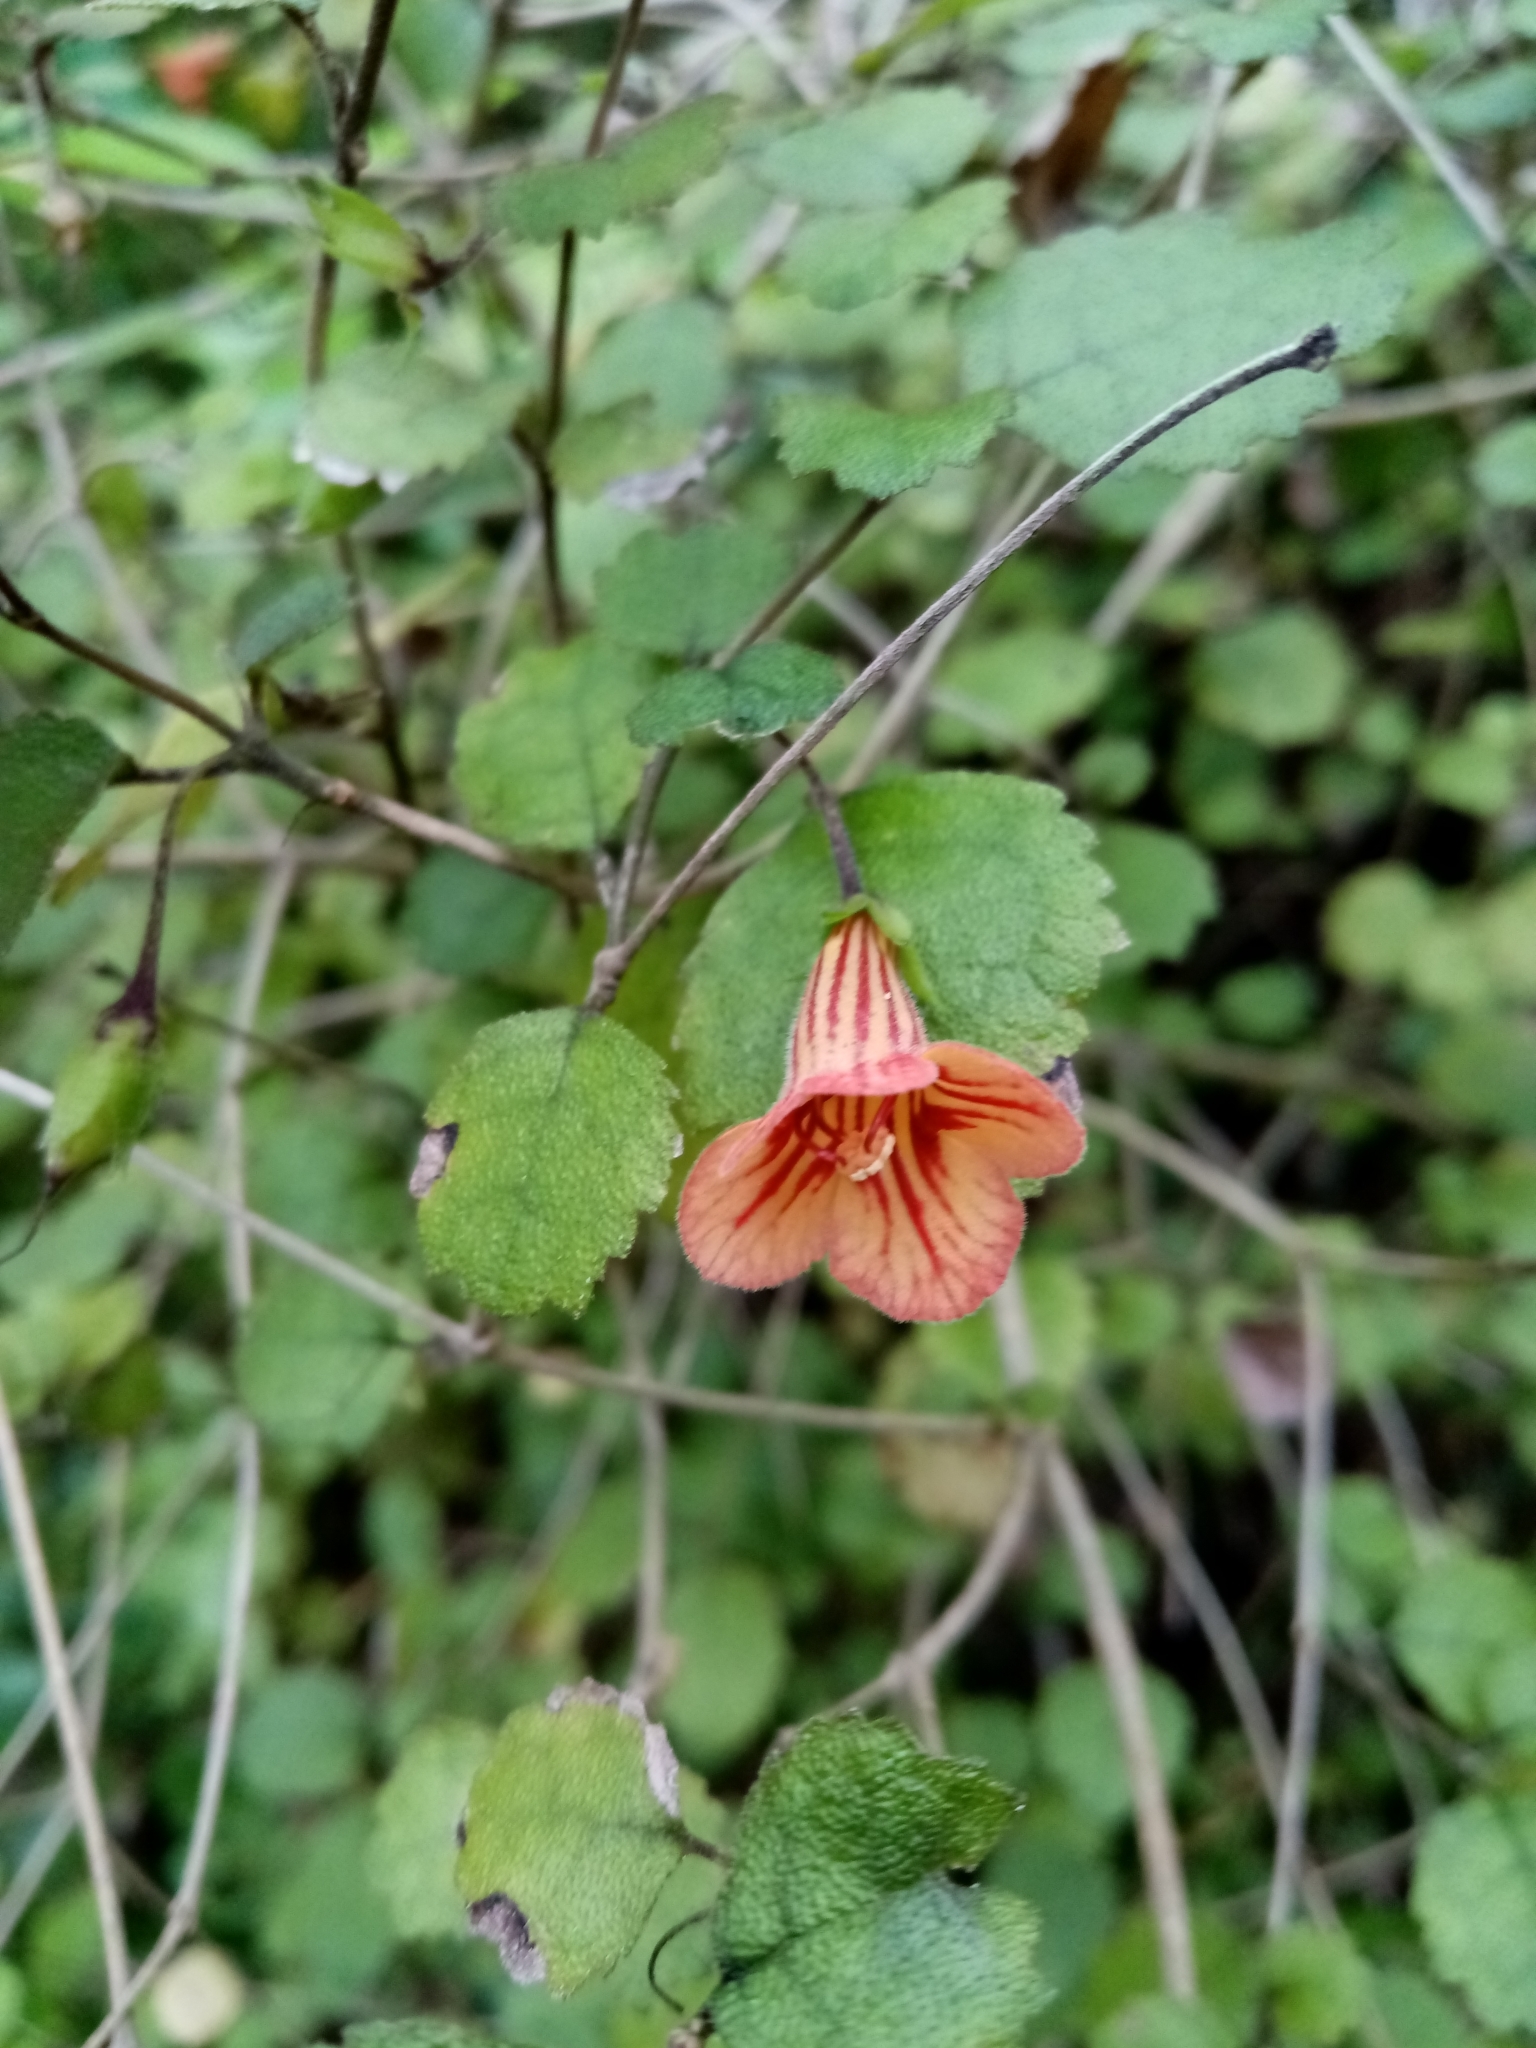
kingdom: Plantae
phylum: Tracheophyta
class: Magnoliopsida
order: Lamiales
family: Gesneriaceae
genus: Rhabdothamnus
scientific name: Rhabdothamnus solandri
